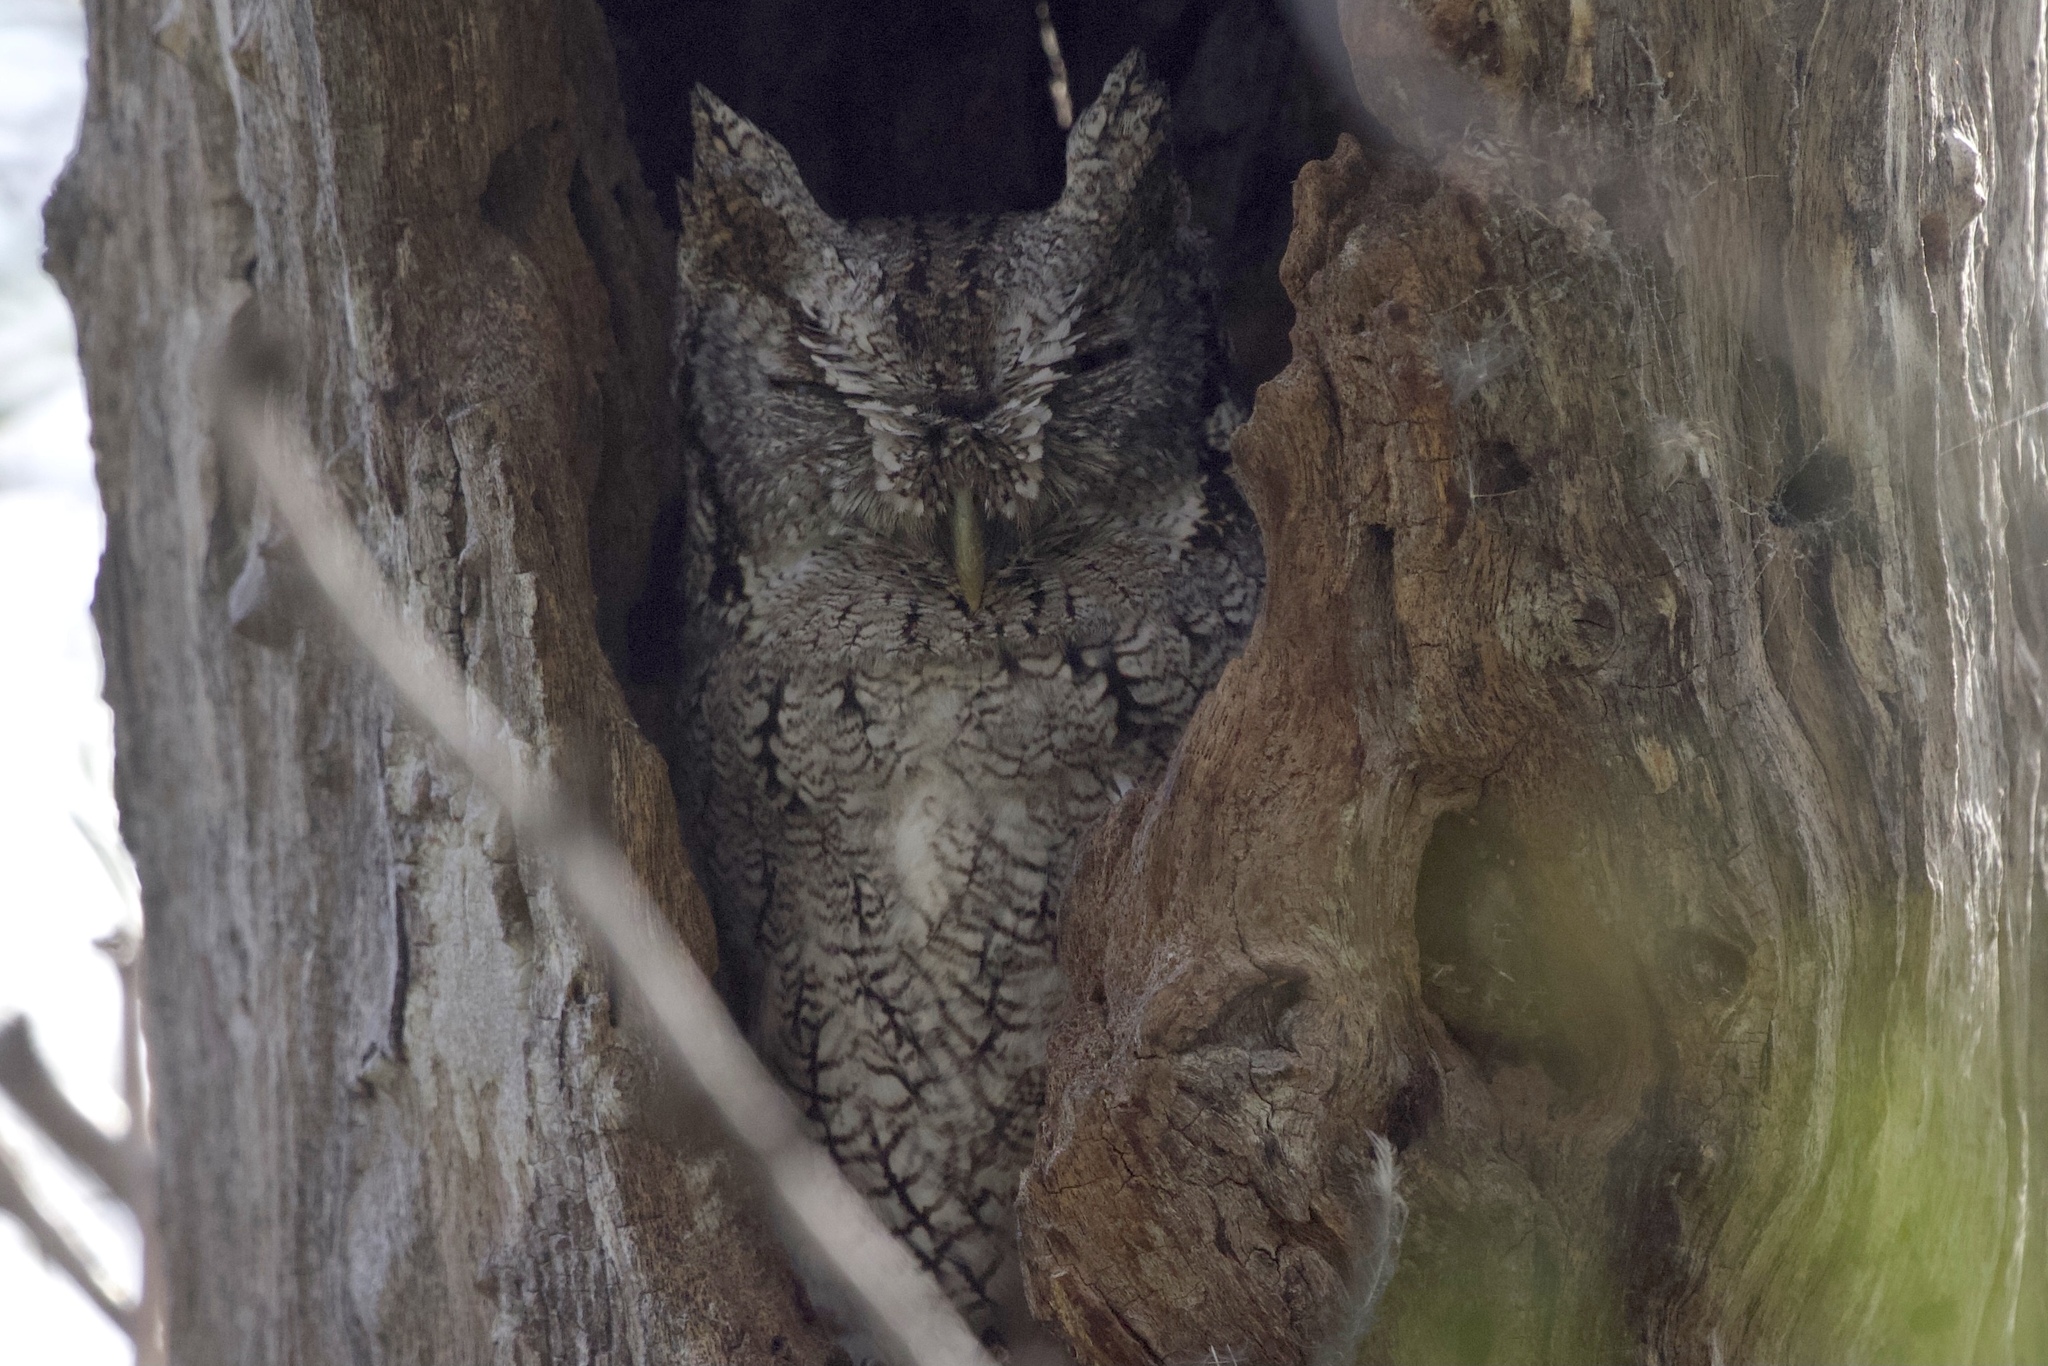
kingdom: Animalia
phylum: Chordata
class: Aves
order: Strigiformes
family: Strigidae
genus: Megascops
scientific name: Megascops asio
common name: Eastern screech-owl
